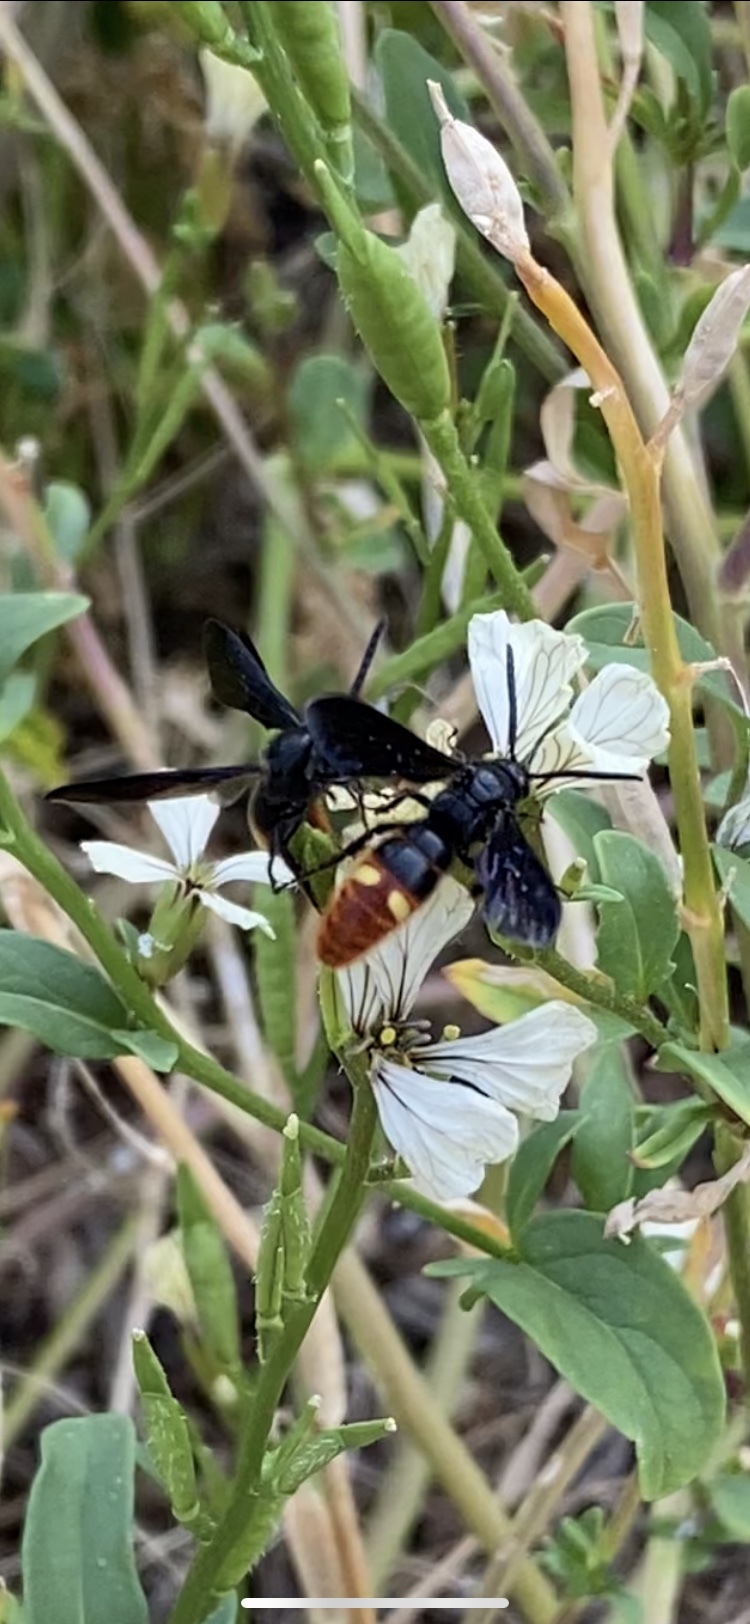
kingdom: Animalia
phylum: Arthropoda
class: Insecta
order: Hymenoptera
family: Scoliidae
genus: Scolia
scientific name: Scolia dubia
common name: Blue-winged scoliid wasp
